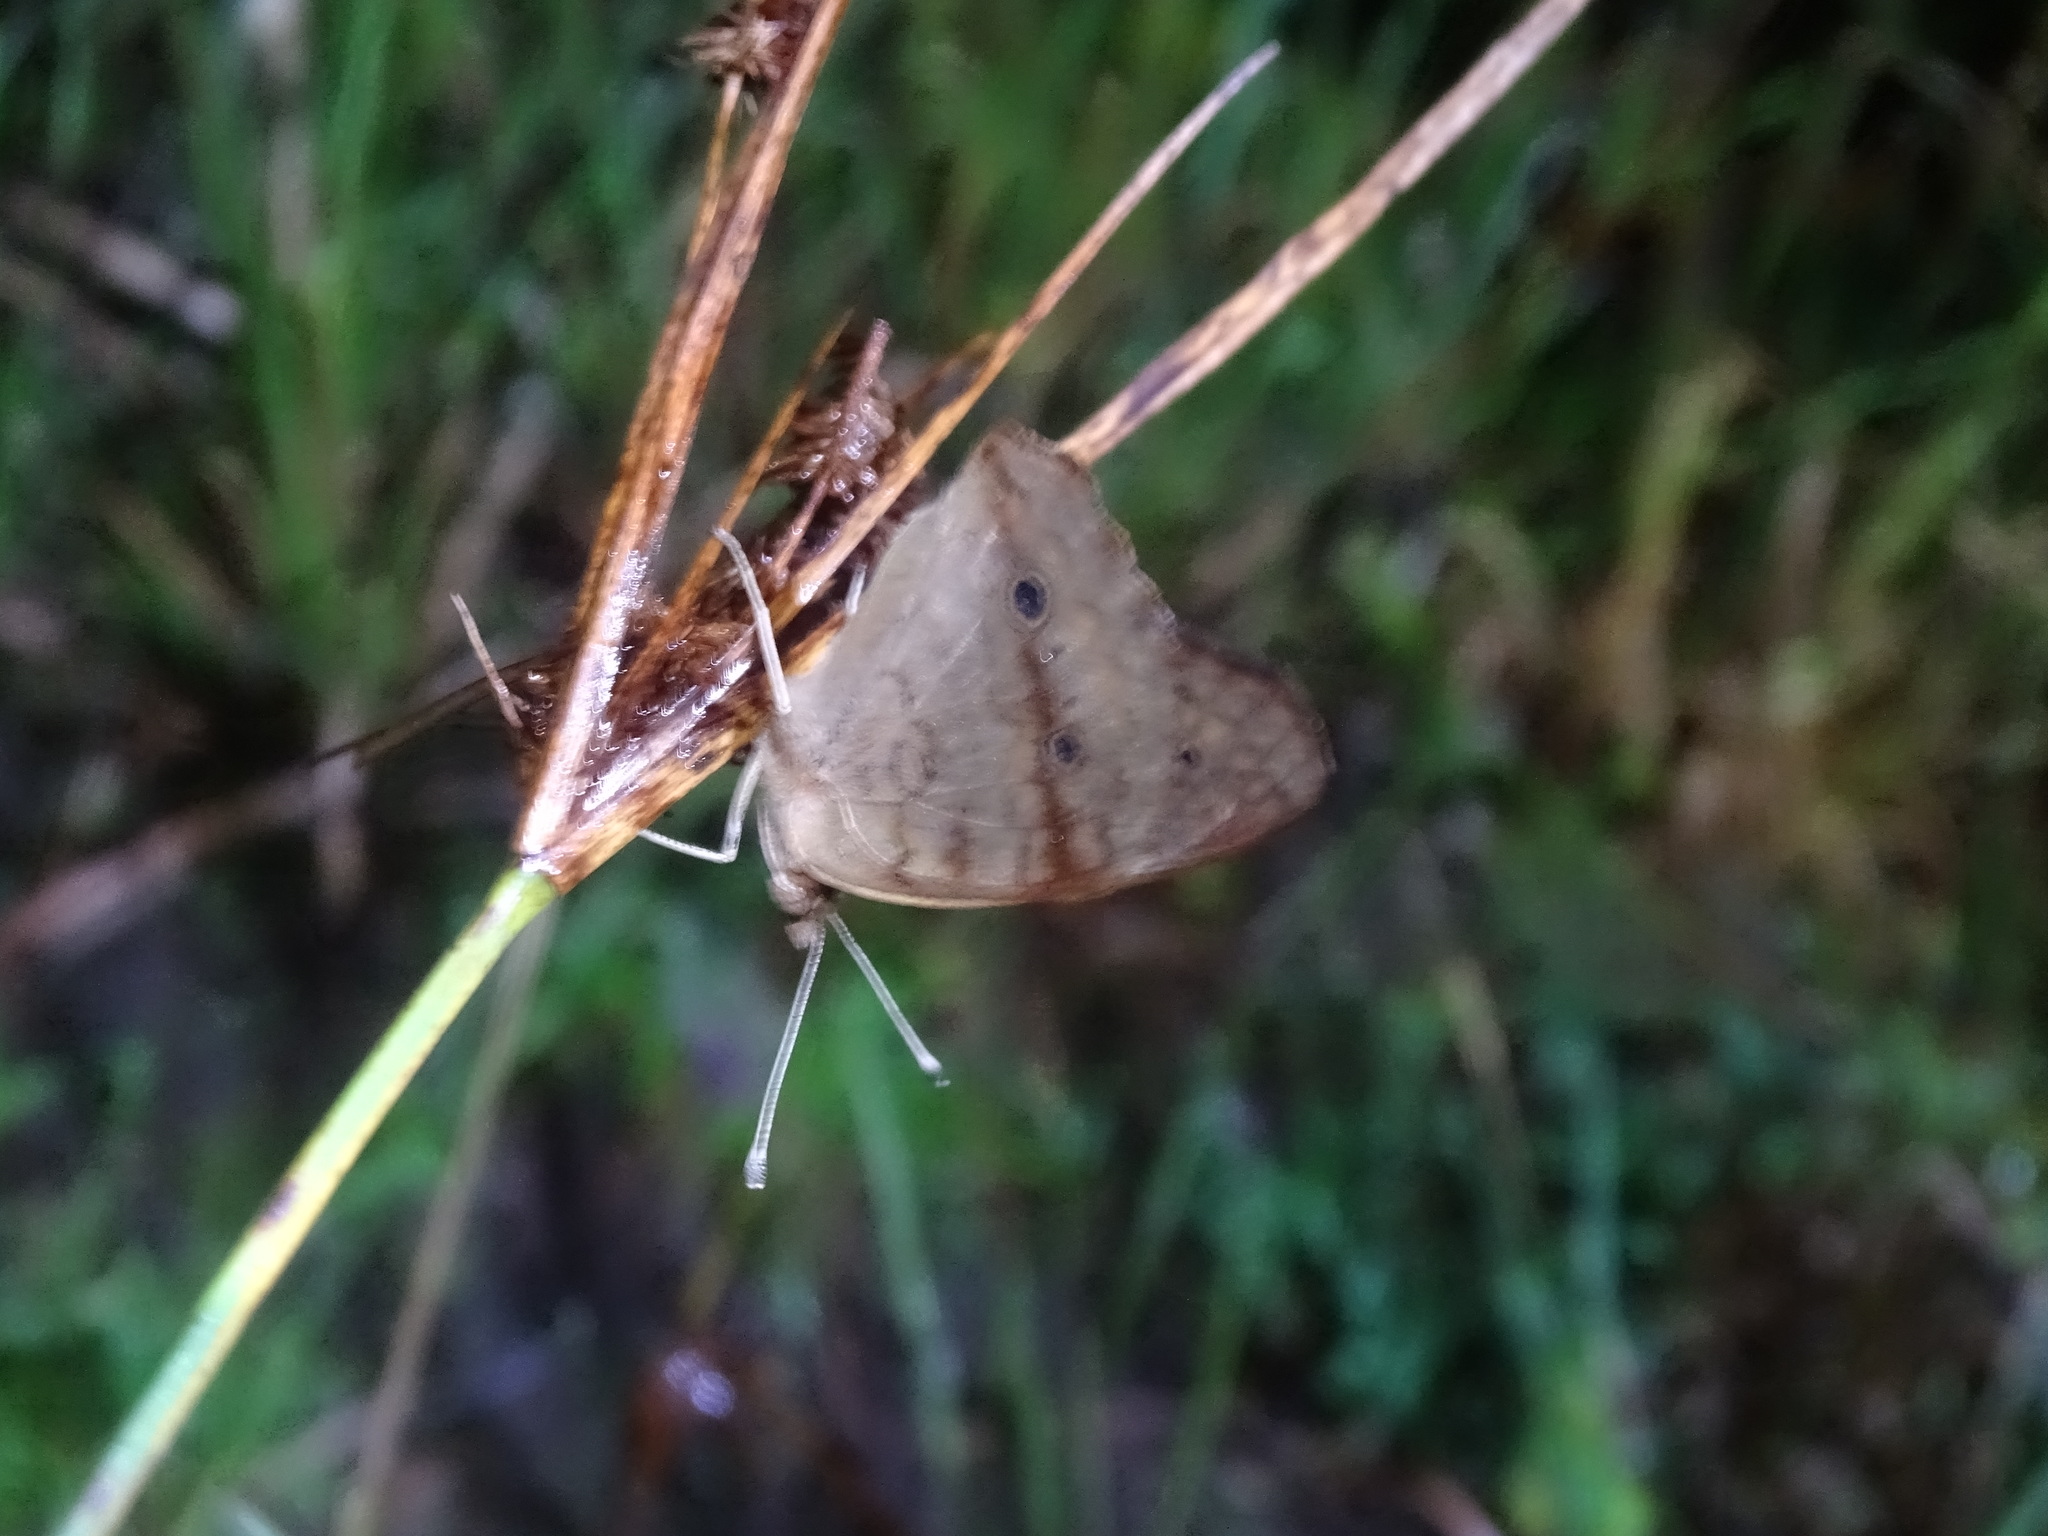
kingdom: Animalia
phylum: Arthropoda
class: Insecta
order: Lepidoptera
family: Nymphalidae
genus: Junonia
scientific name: Junonia coenia
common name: Common buckeye
